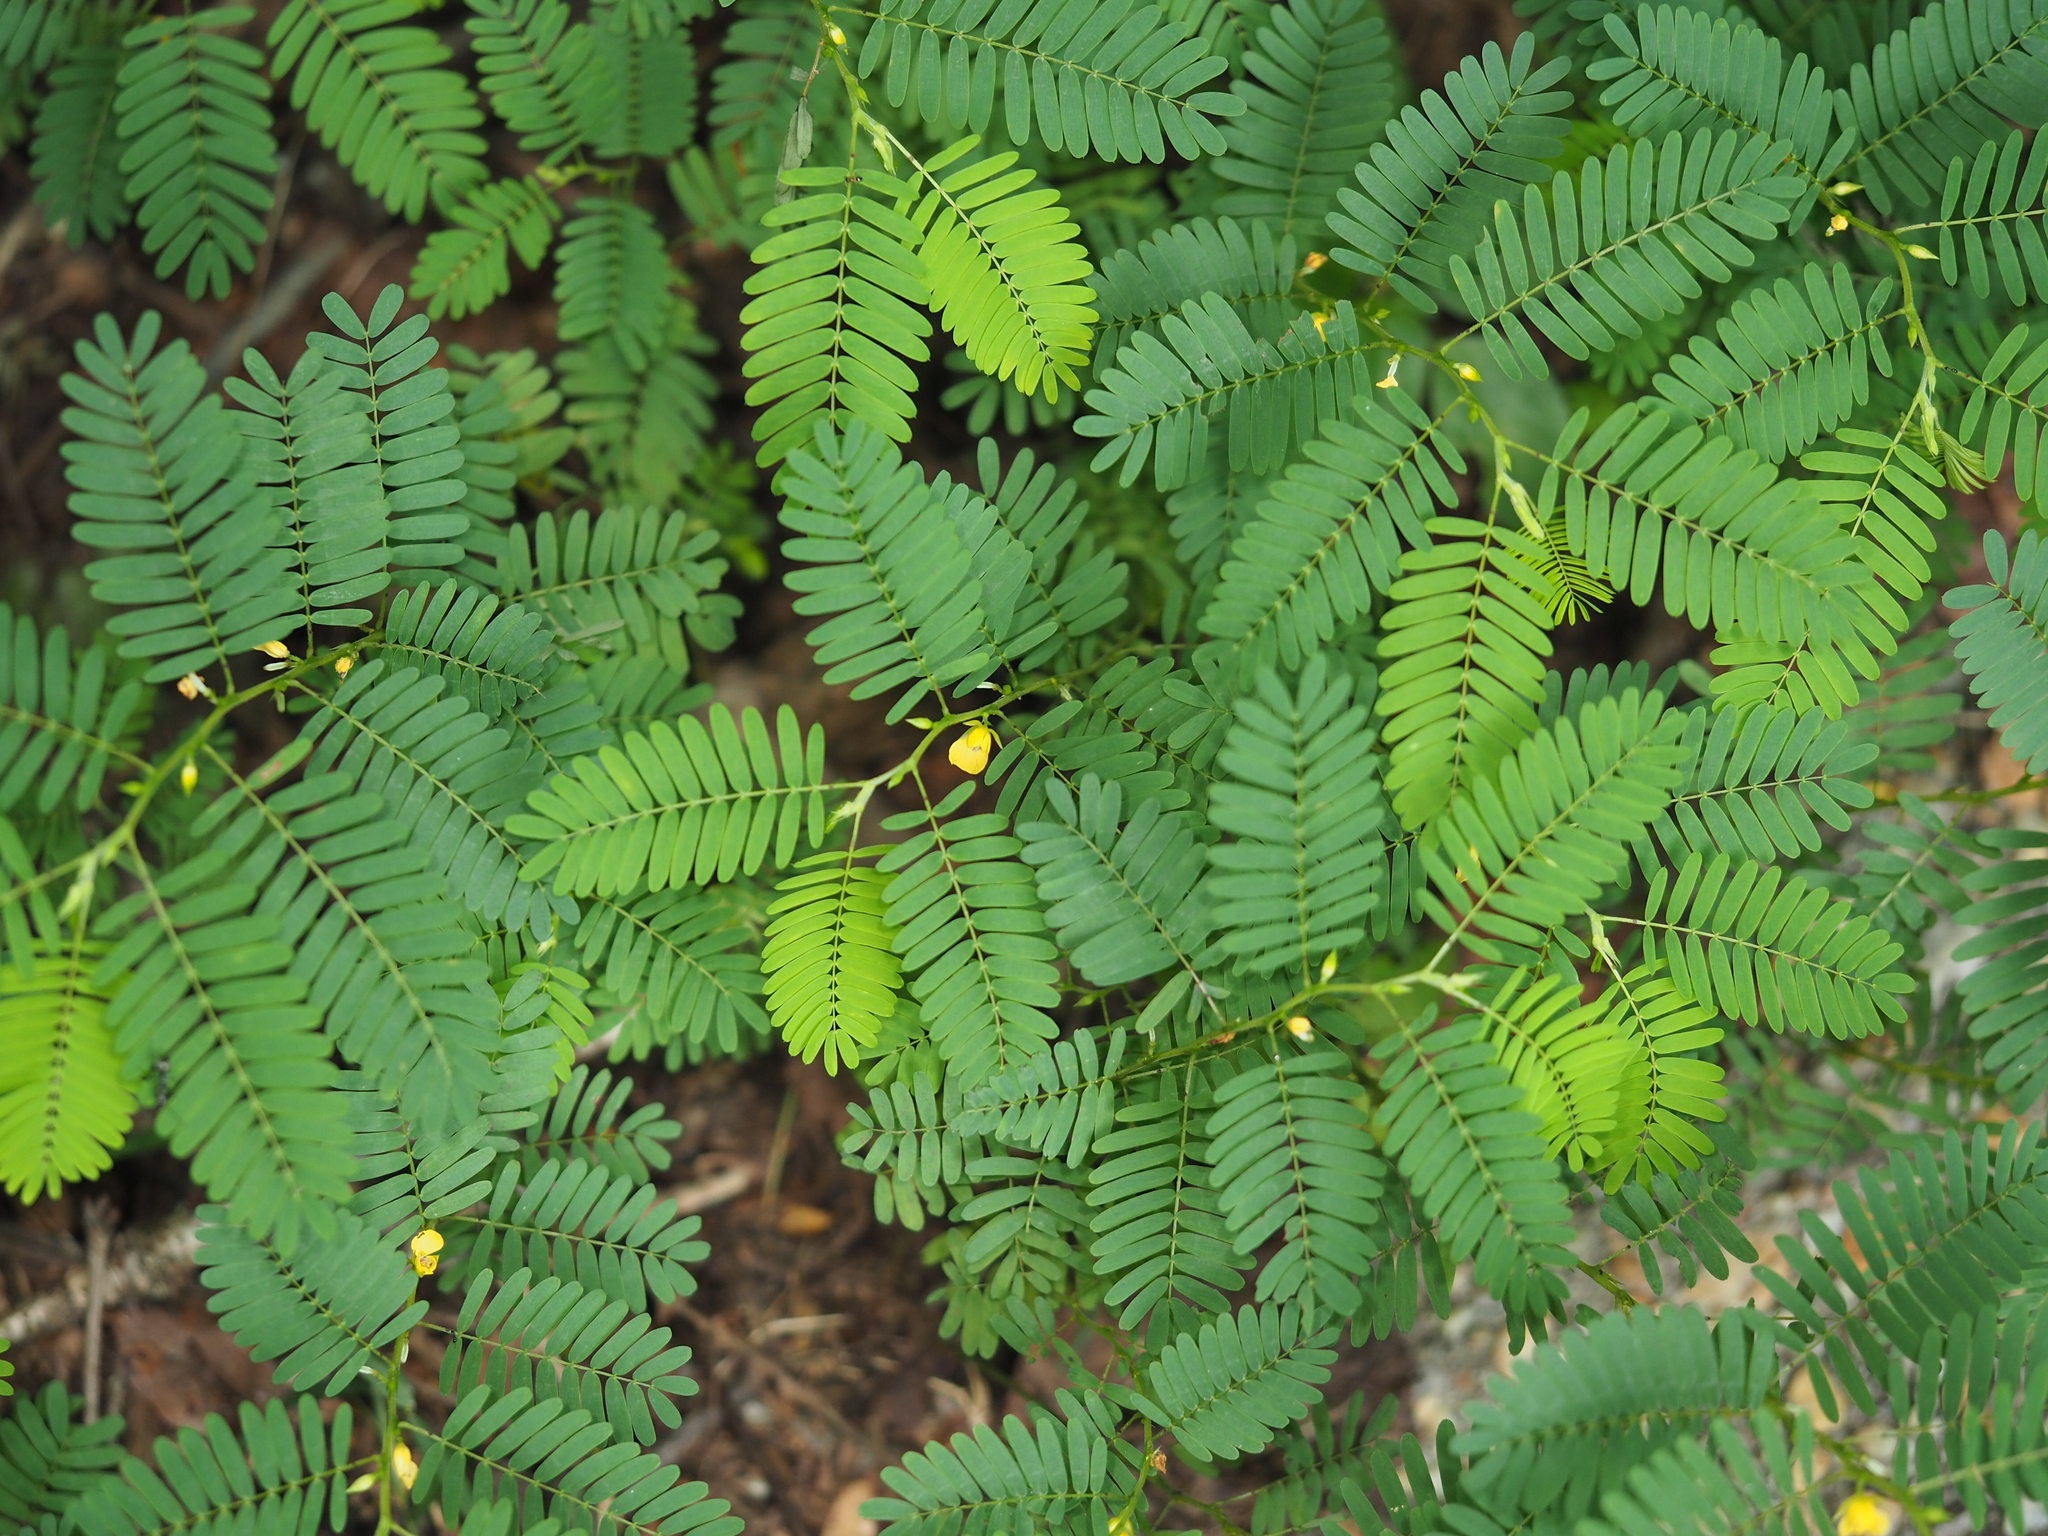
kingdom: Plantae
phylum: Tracheophyta
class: Magnoliopsida
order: Fabales
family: Fabaceae
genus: Chamaecrista
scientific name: Chamaecrista nictitans
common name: Sensitive cassia
